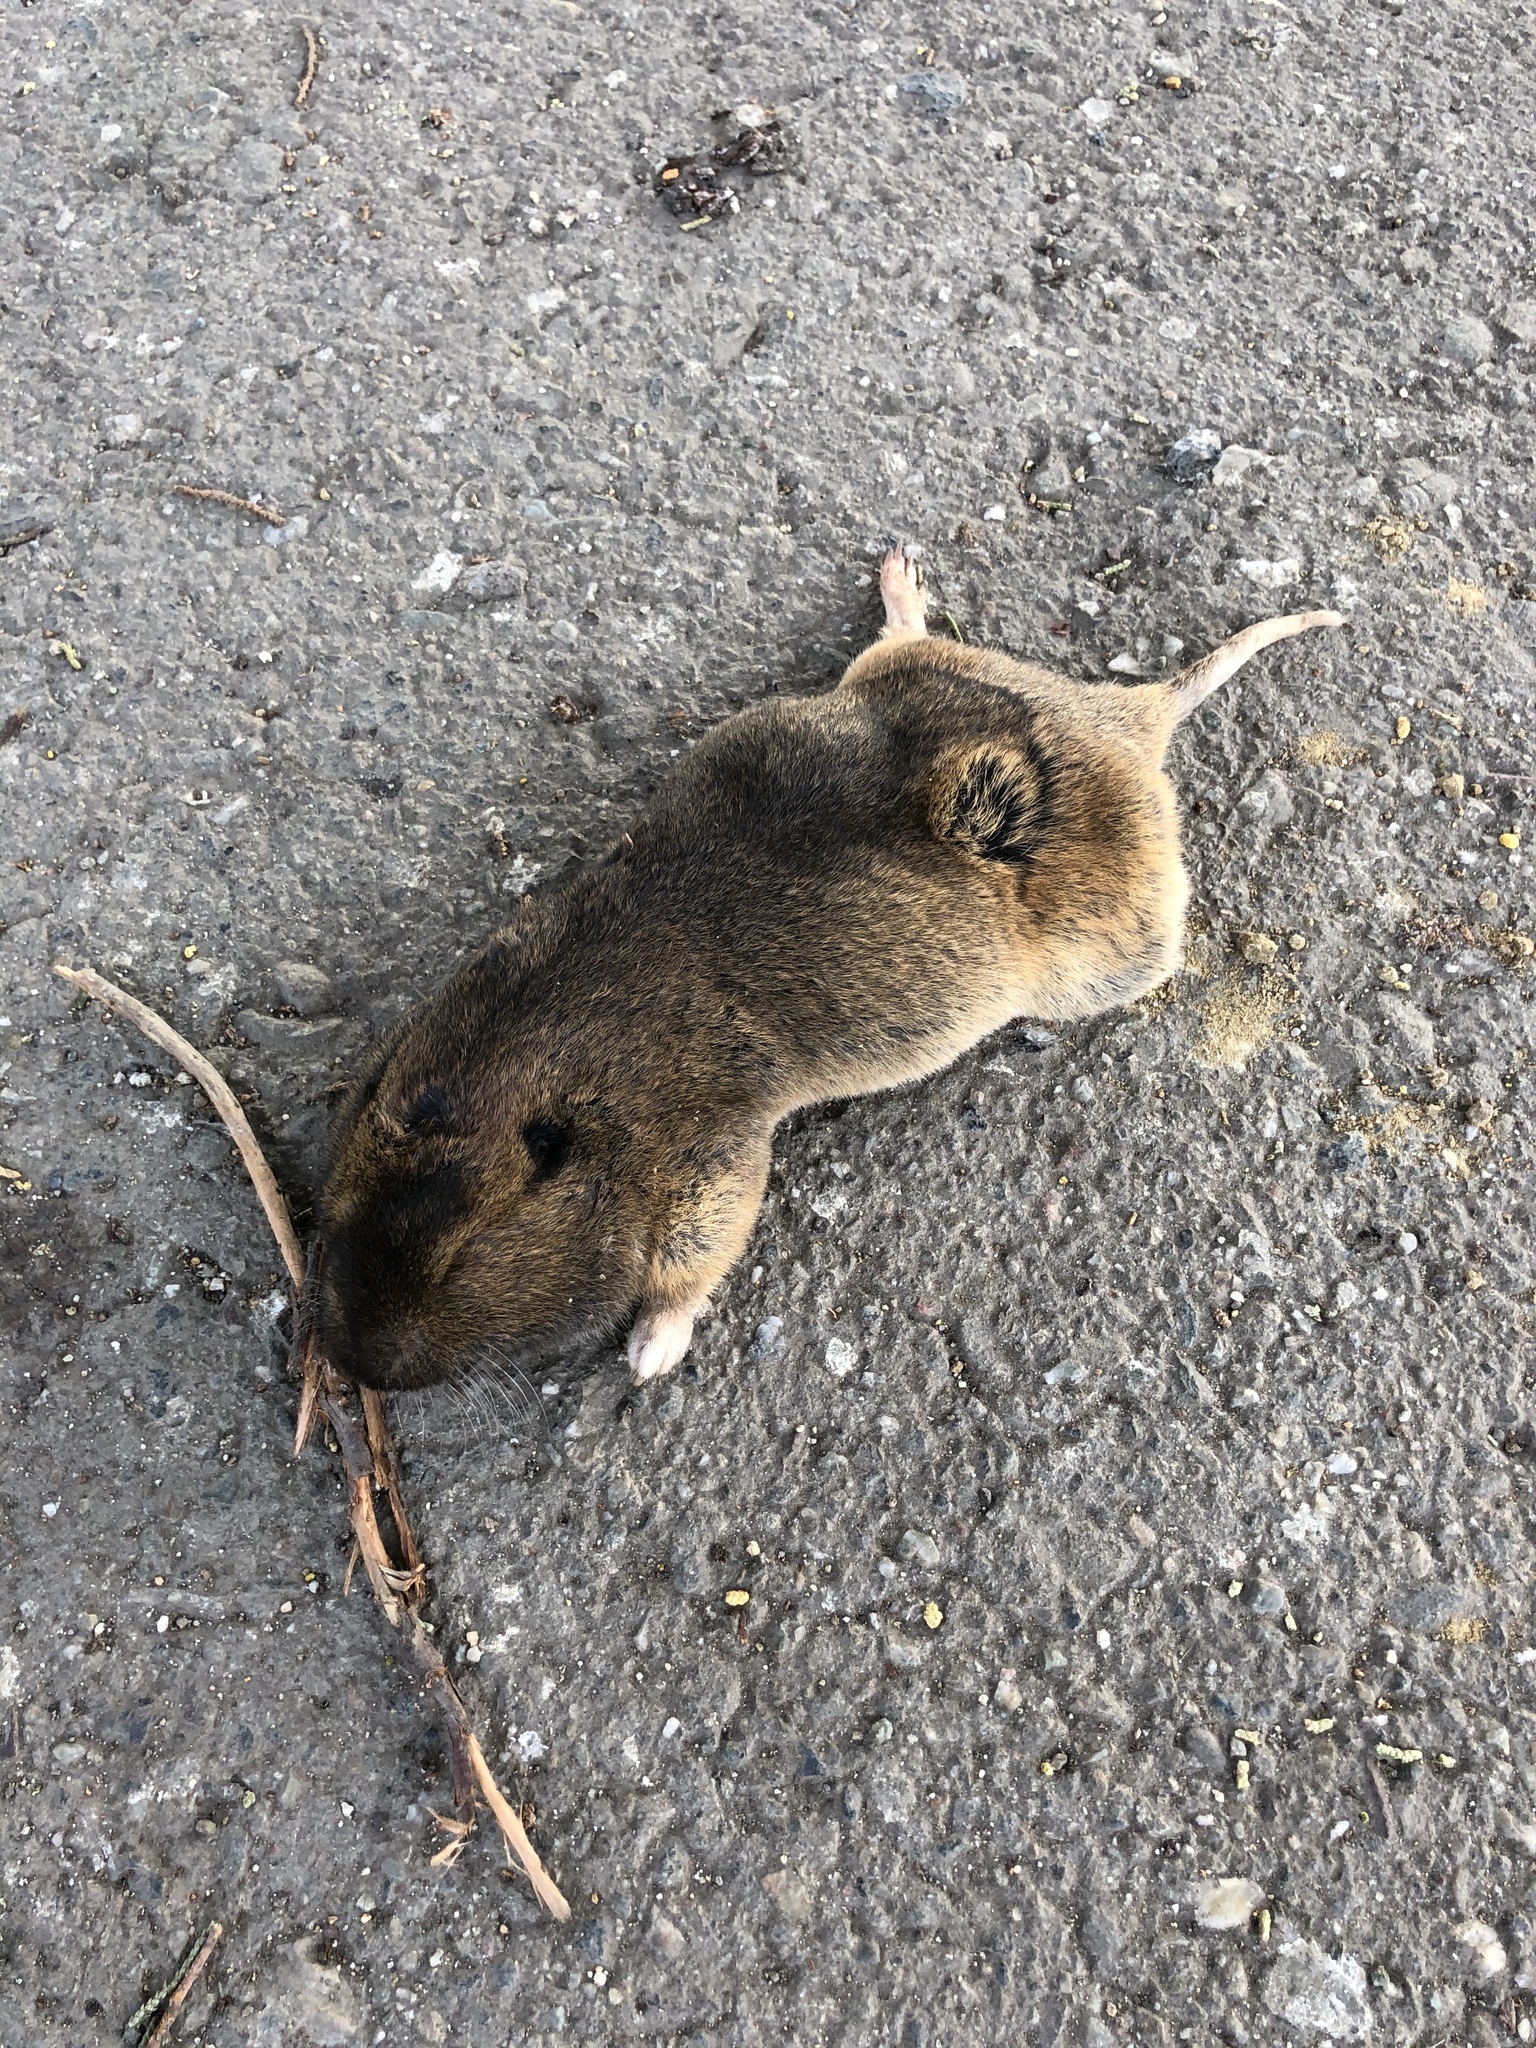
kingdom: Animalia
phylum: Chordata
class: Mammalia
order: Rodentia
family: Geomyidae
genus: Thomomys
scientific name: Thomomys bottae
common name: Botta's pocket gopher
